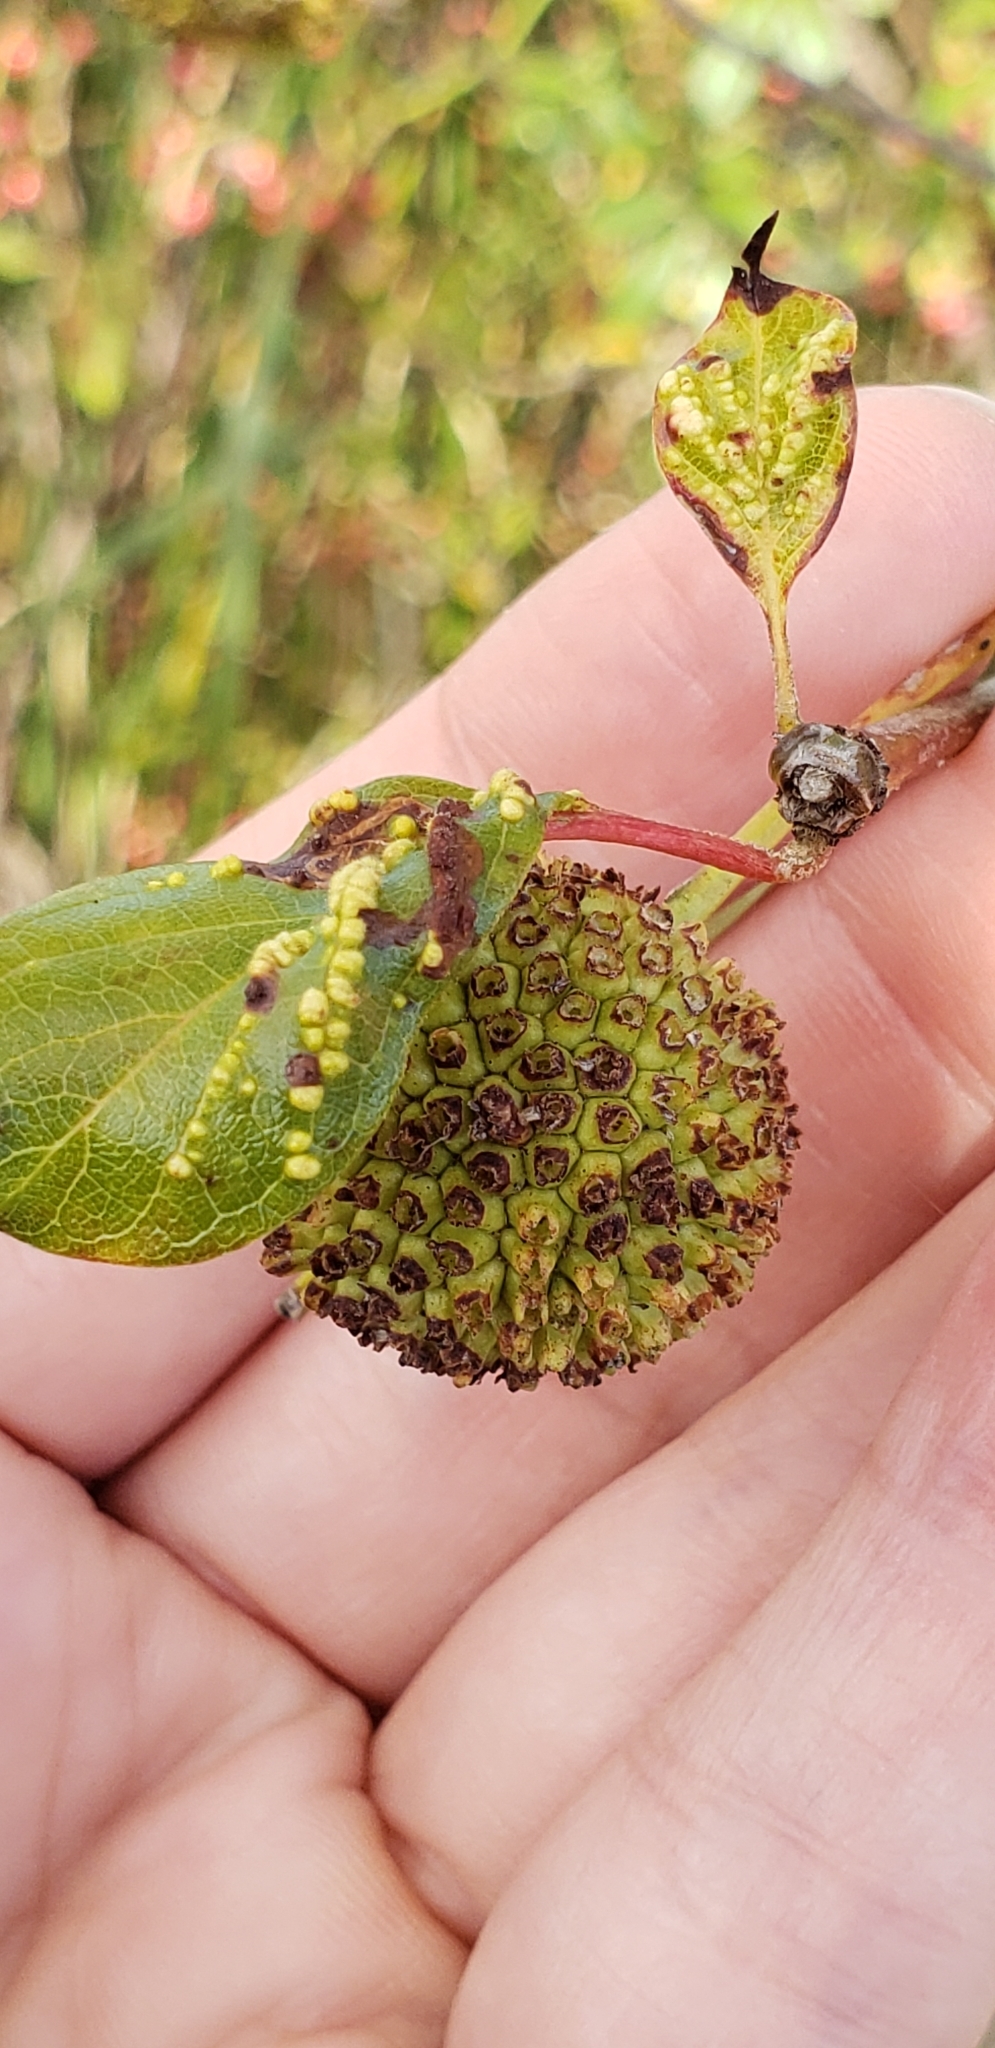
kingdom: Plantae
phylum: Tracheophyta
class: Magnoliopsida
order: Gentianales
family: Rubiaceae
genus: Cephalanthus
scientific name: Cephalanthus occidentalis
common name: Button-willow
